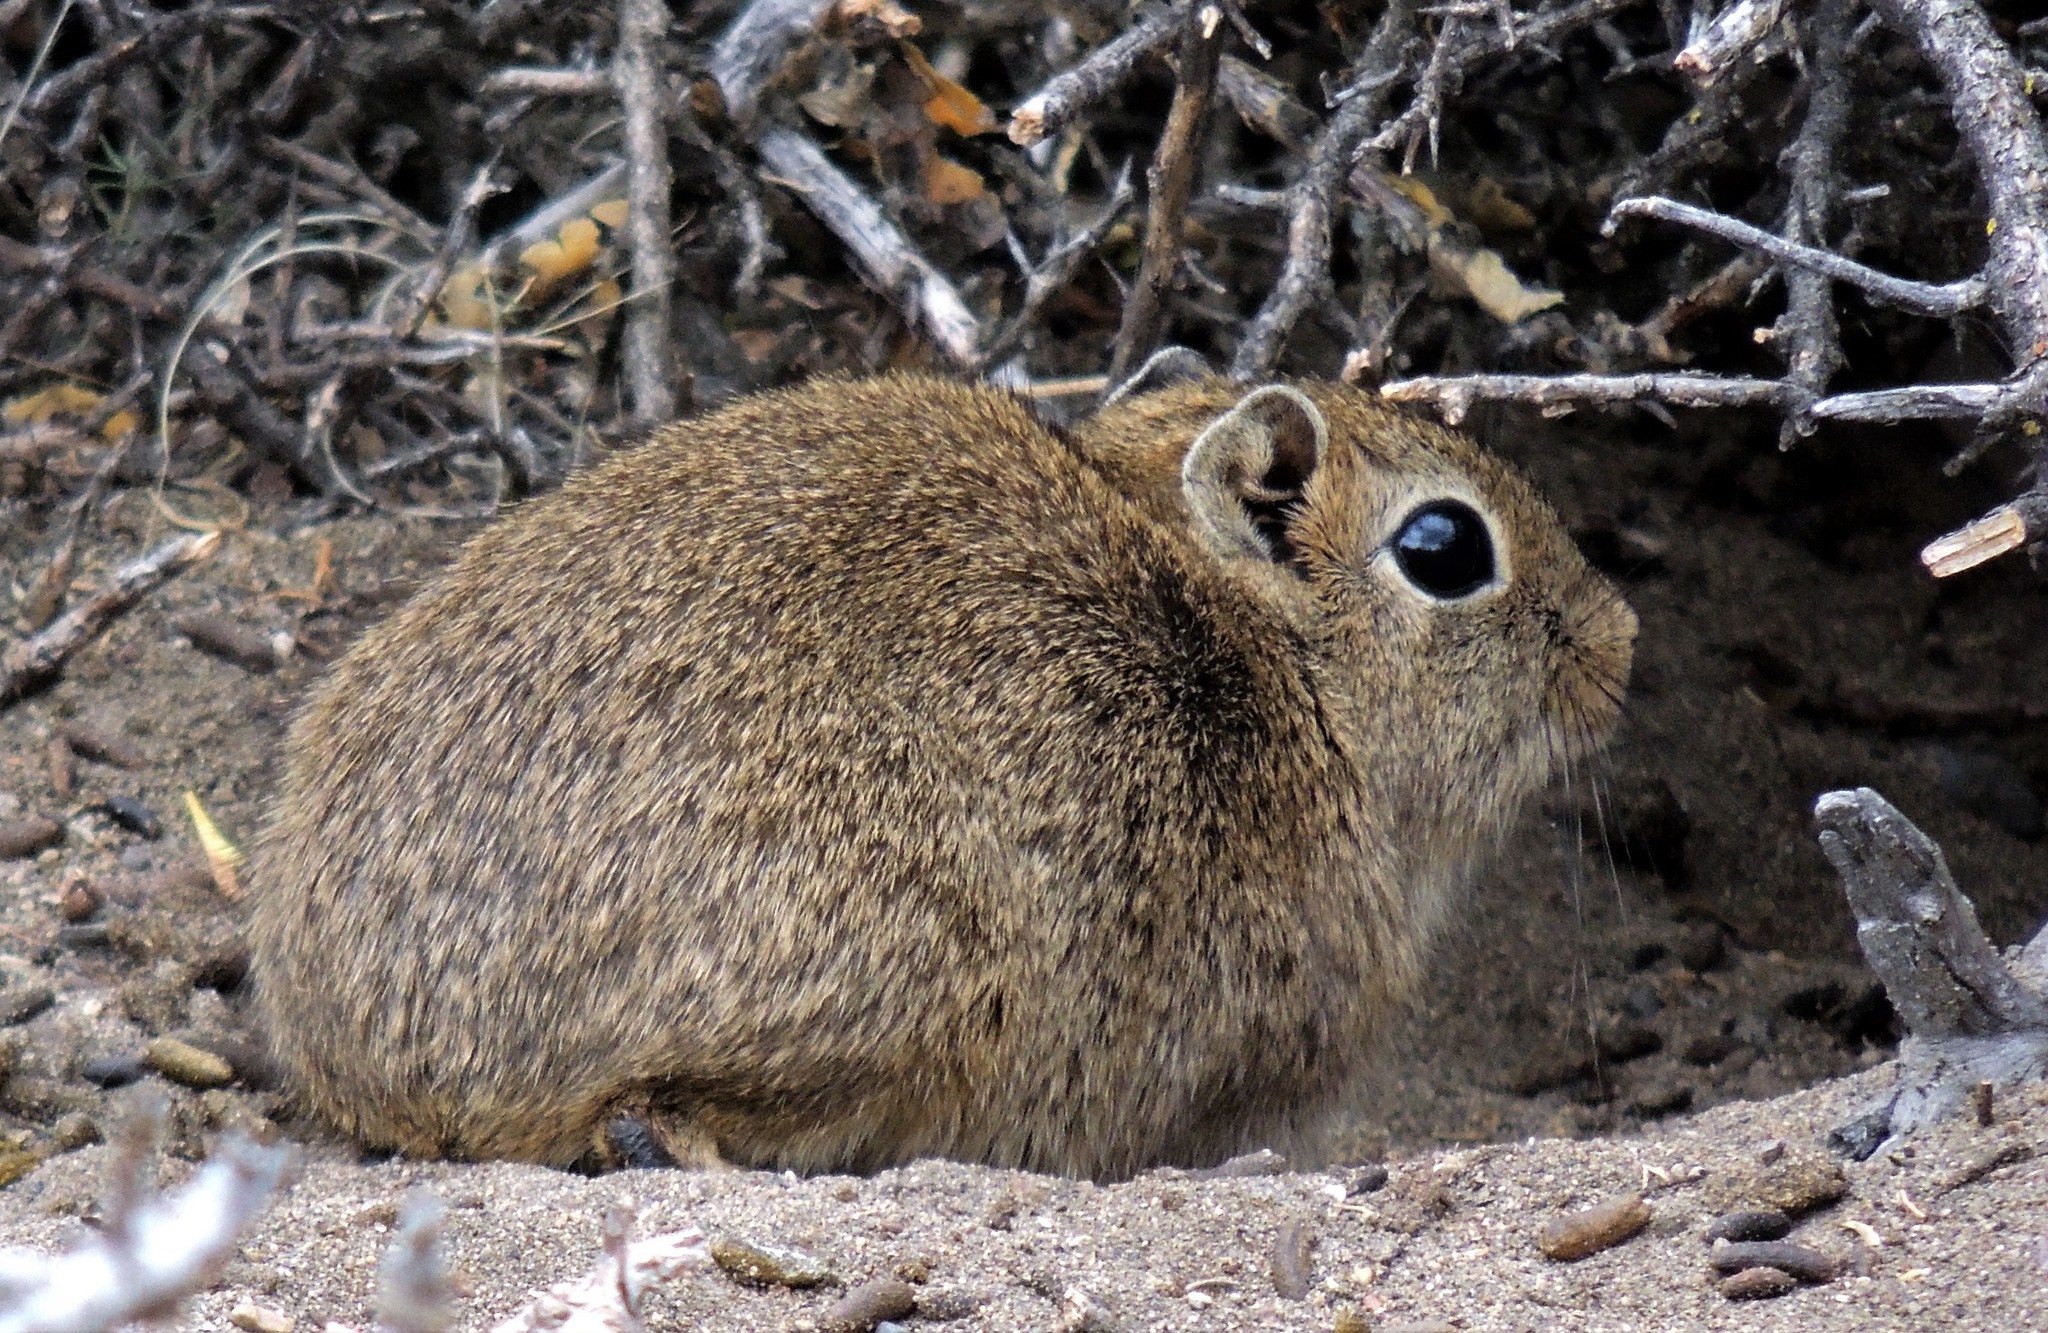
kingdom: Animalia
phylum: Chordata
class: Mammalia
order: Rodentia
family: Caviidae
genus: Microcavia
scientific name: Microcavia australis
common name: Southern mountain cavy
